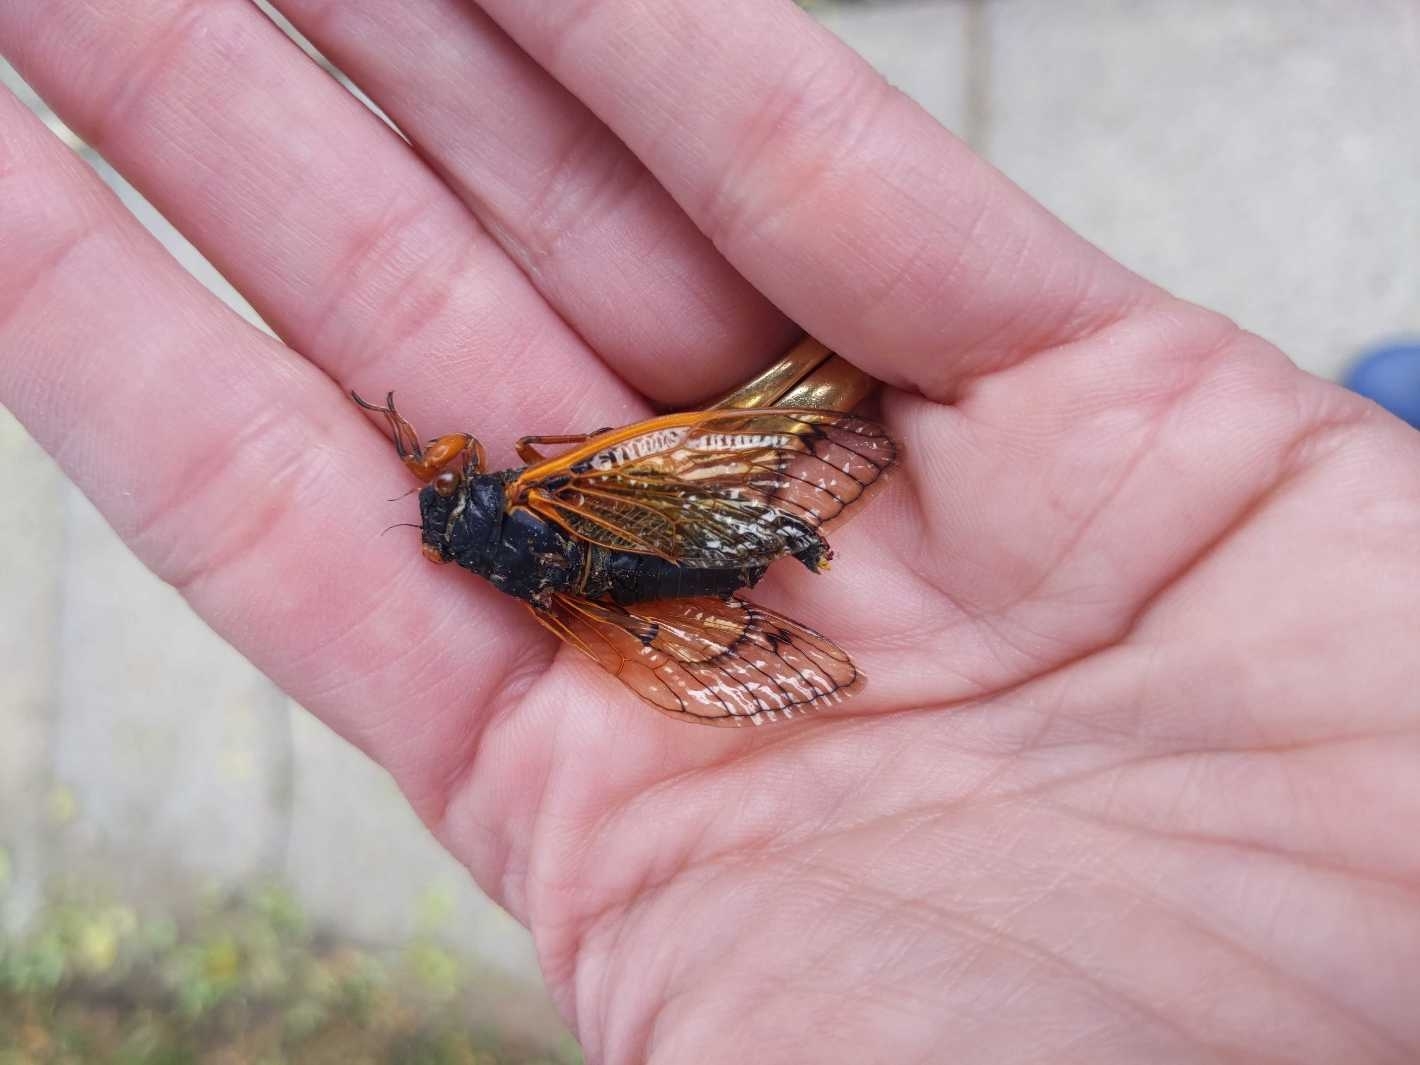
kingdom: Animalia
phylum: Arthropoda
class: Insecta
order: Hemiptera
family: Cicadidae
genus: Magicicada
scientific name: Magicicada cassini
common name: Cassin's 17-year cicada
